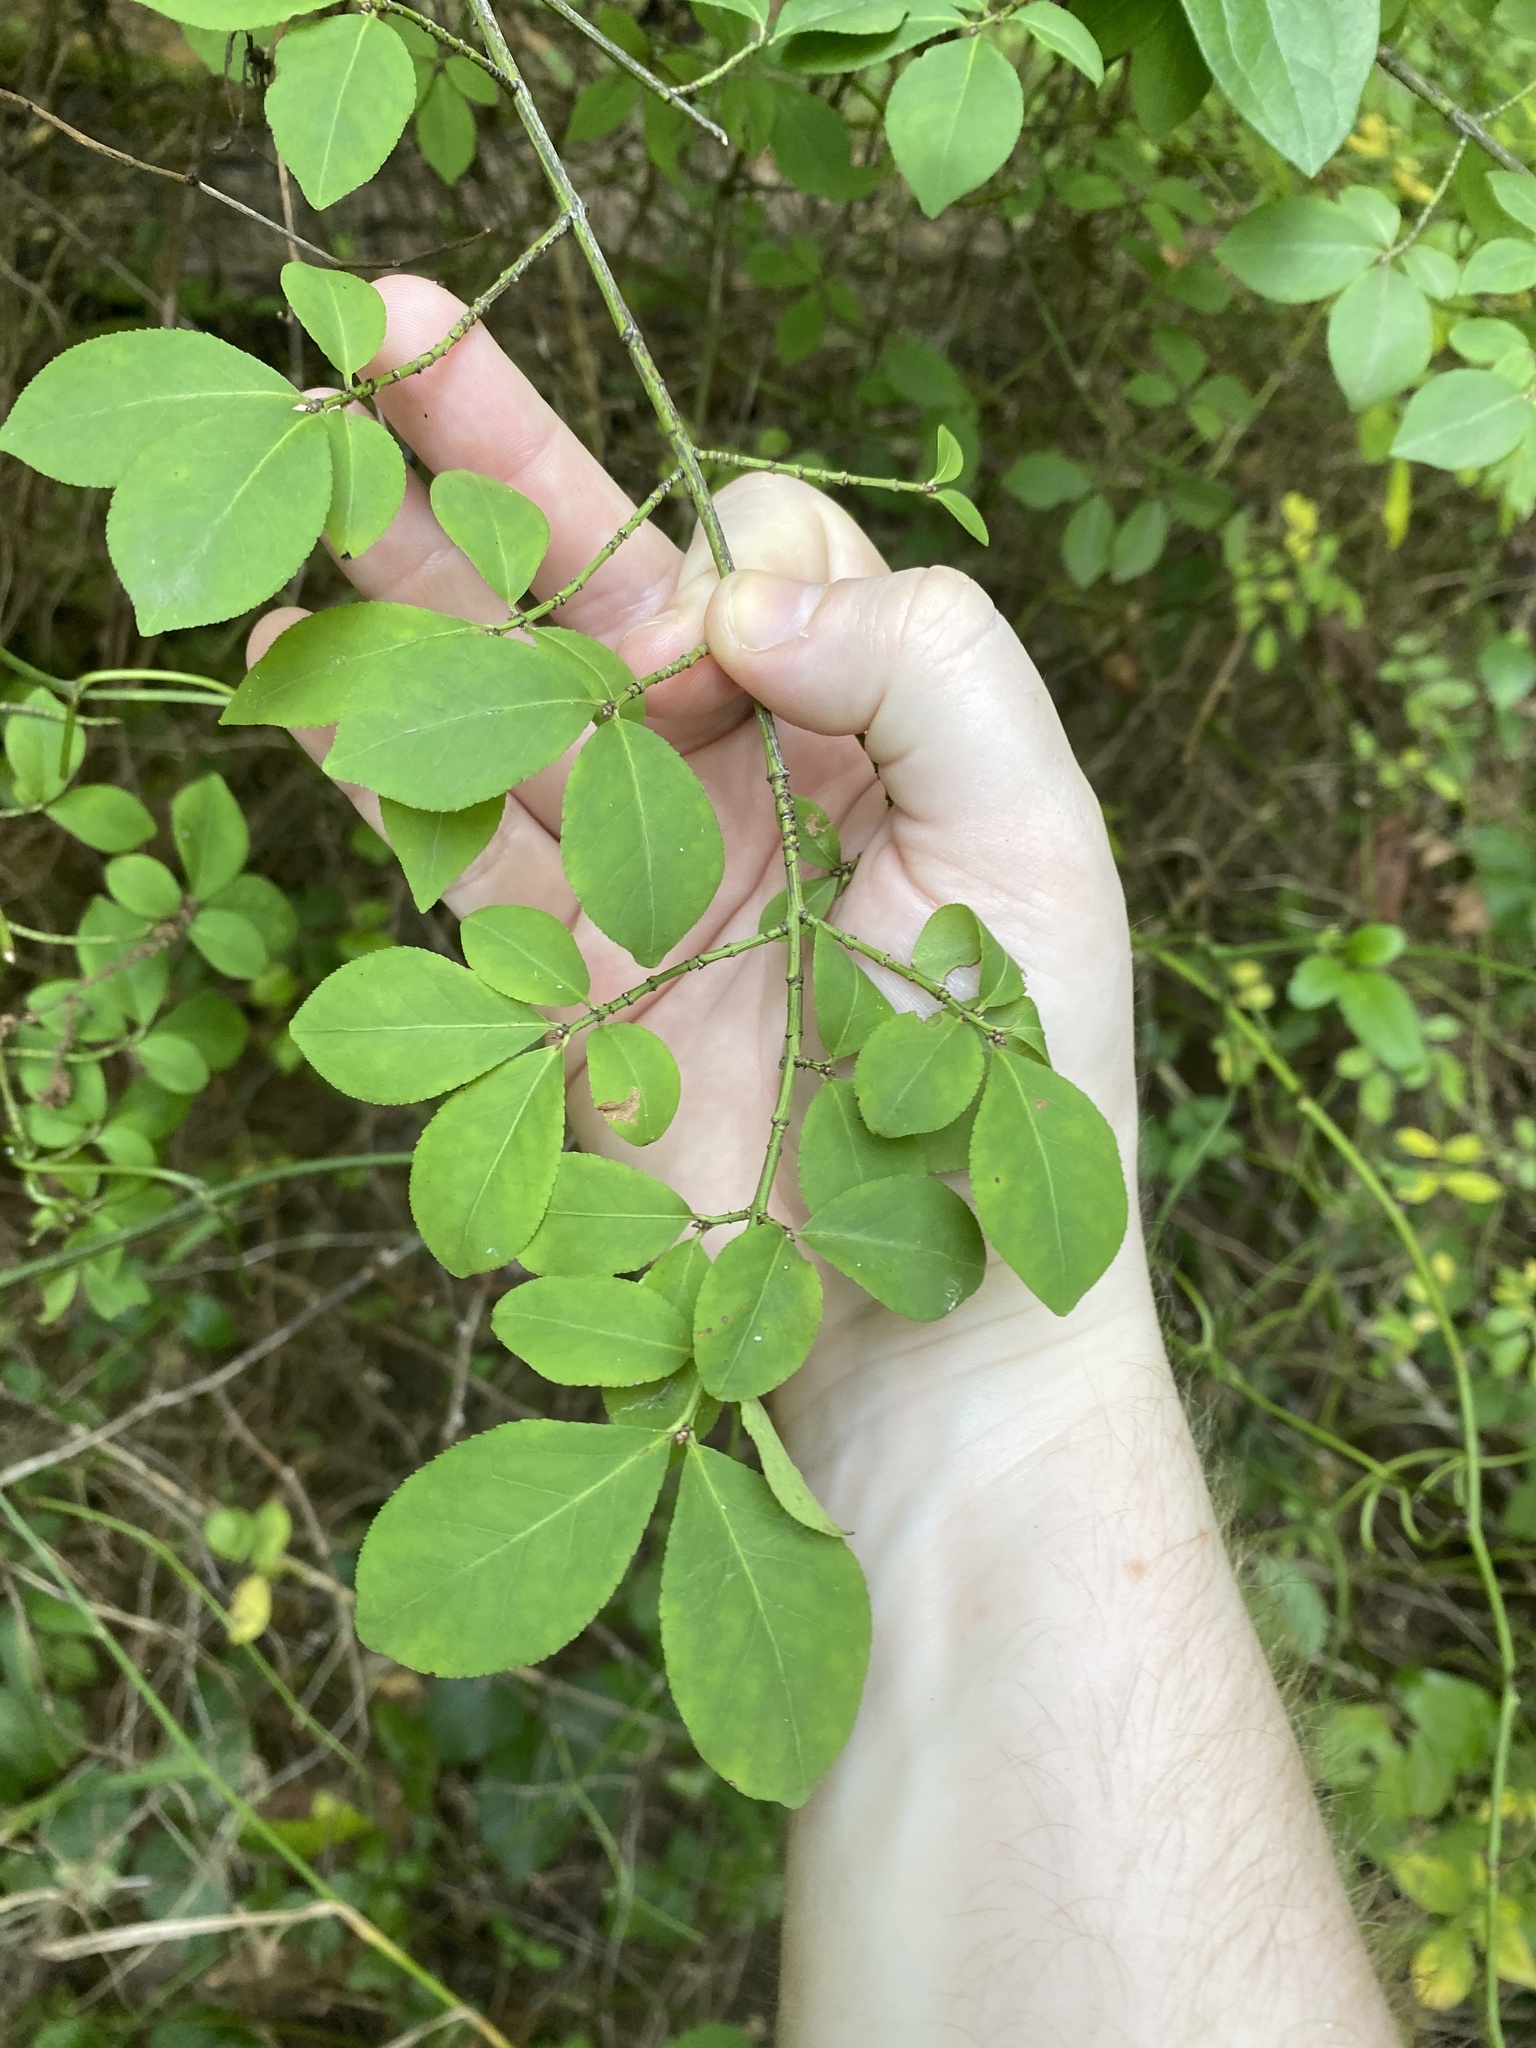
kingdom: Plantae
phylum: Tracheophyta
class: Magnoliopsida
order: Celastrales
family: Celastraceae
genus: Euonymus
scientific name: Euonymus alatus
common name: Winged euonymus
